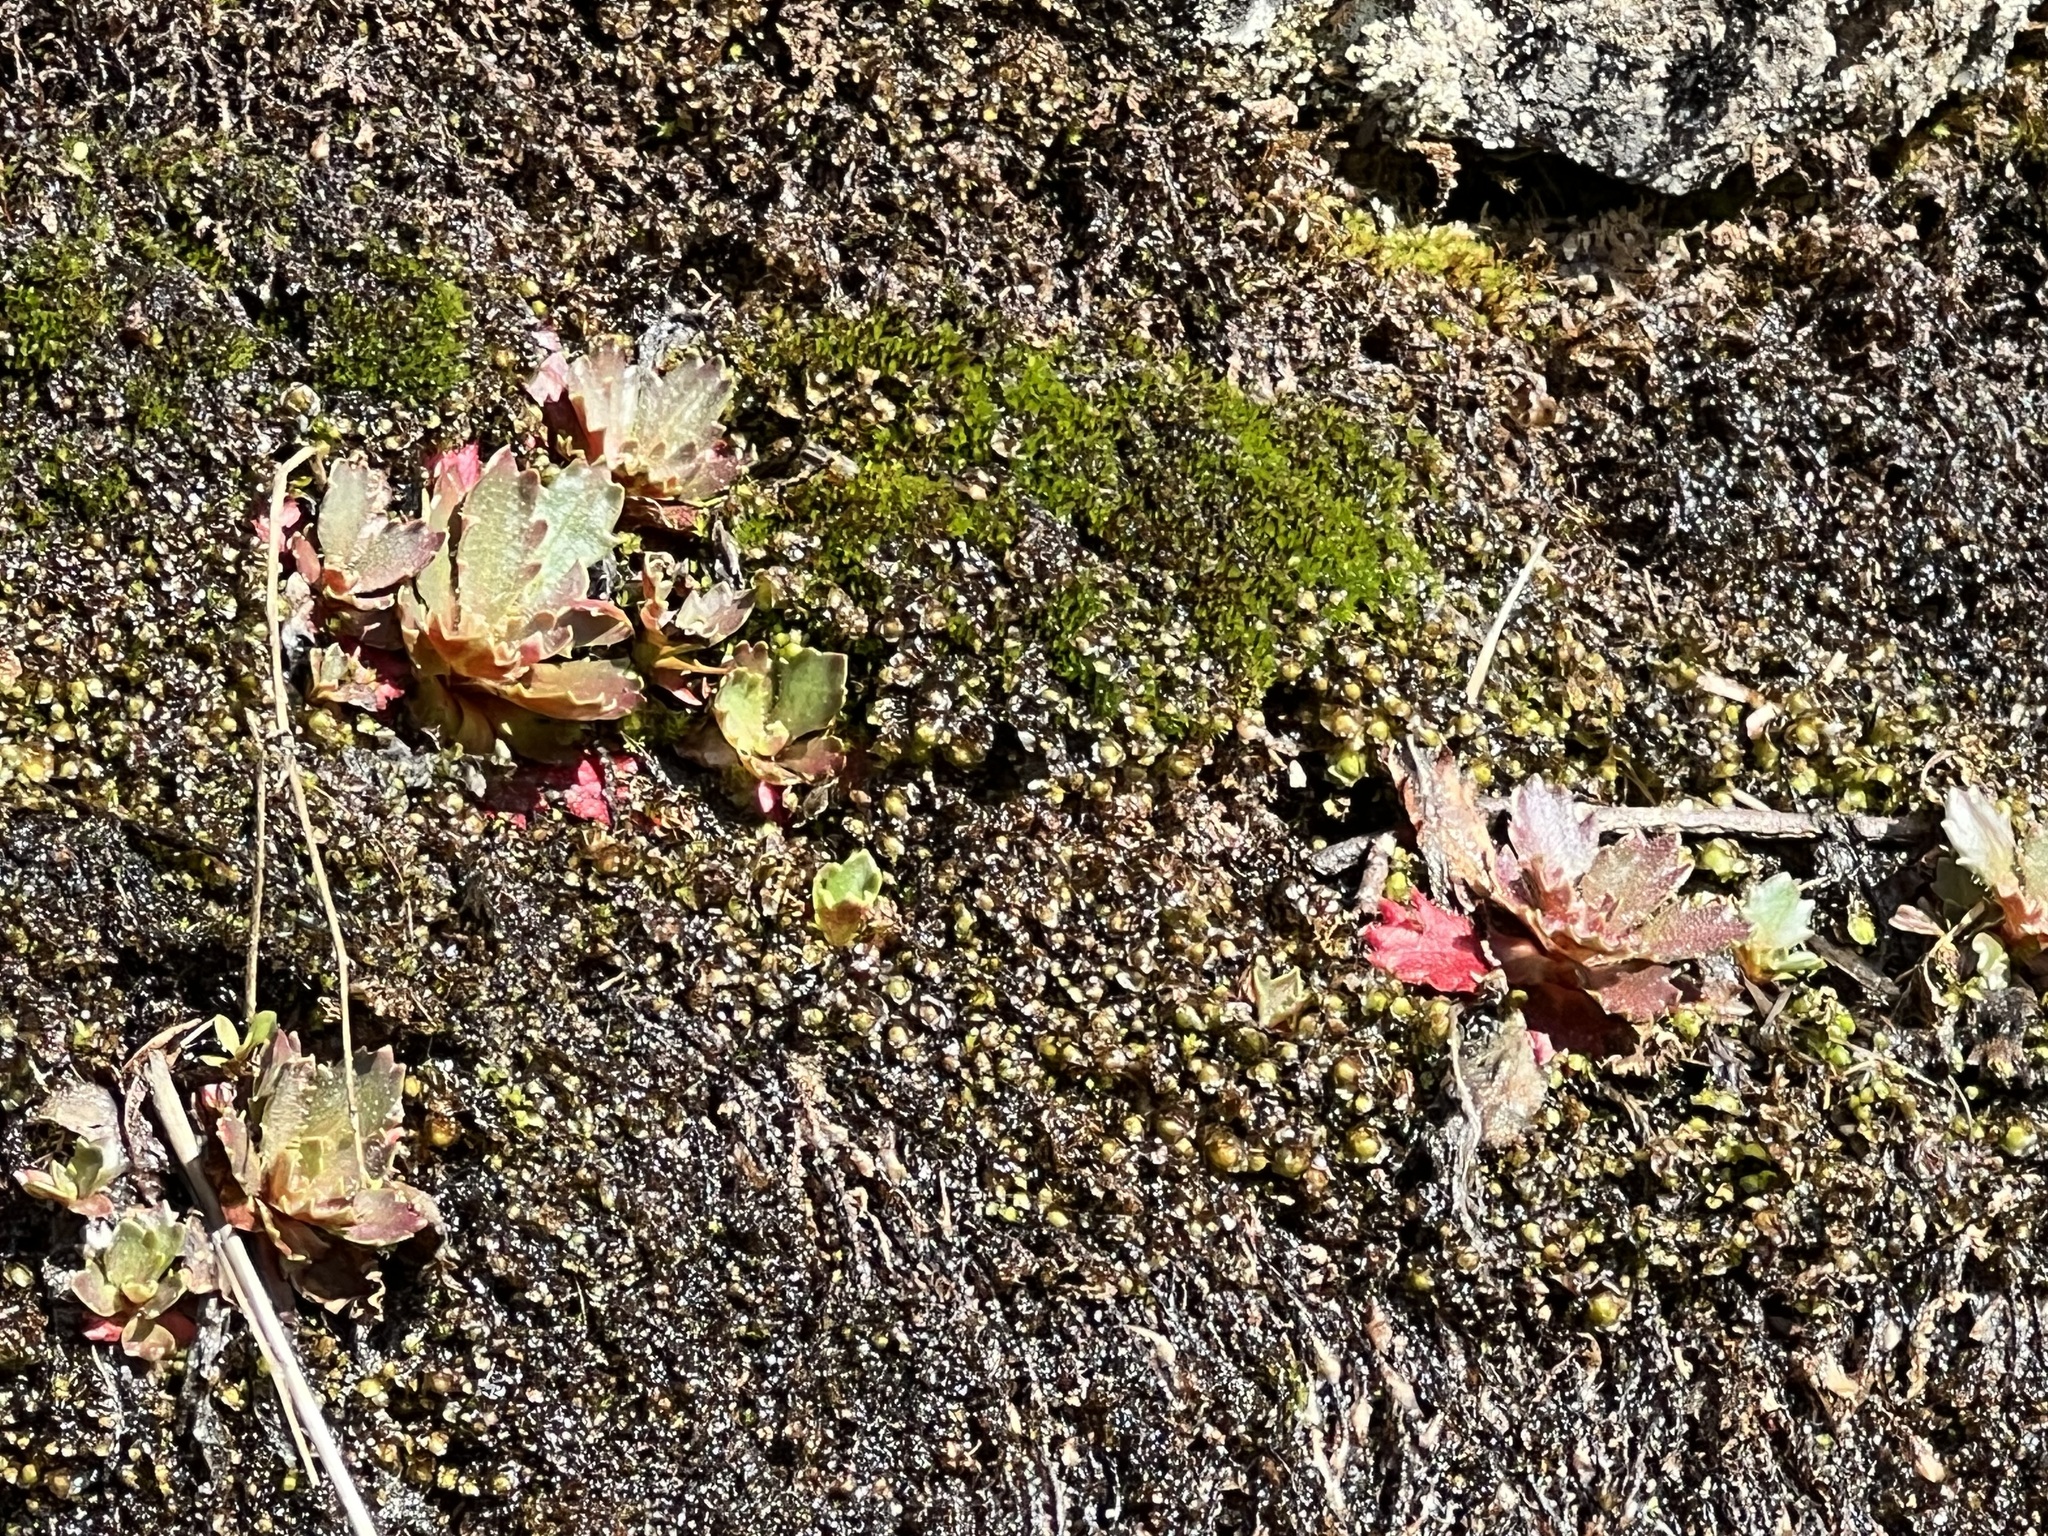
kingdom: Plantae
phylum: Tracheophyta
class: Magnoliopsida
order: Saxifragales
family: Saxifragaceae
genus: Micranthes
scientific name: Micranthes virginiensis
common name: Early saxifrage
